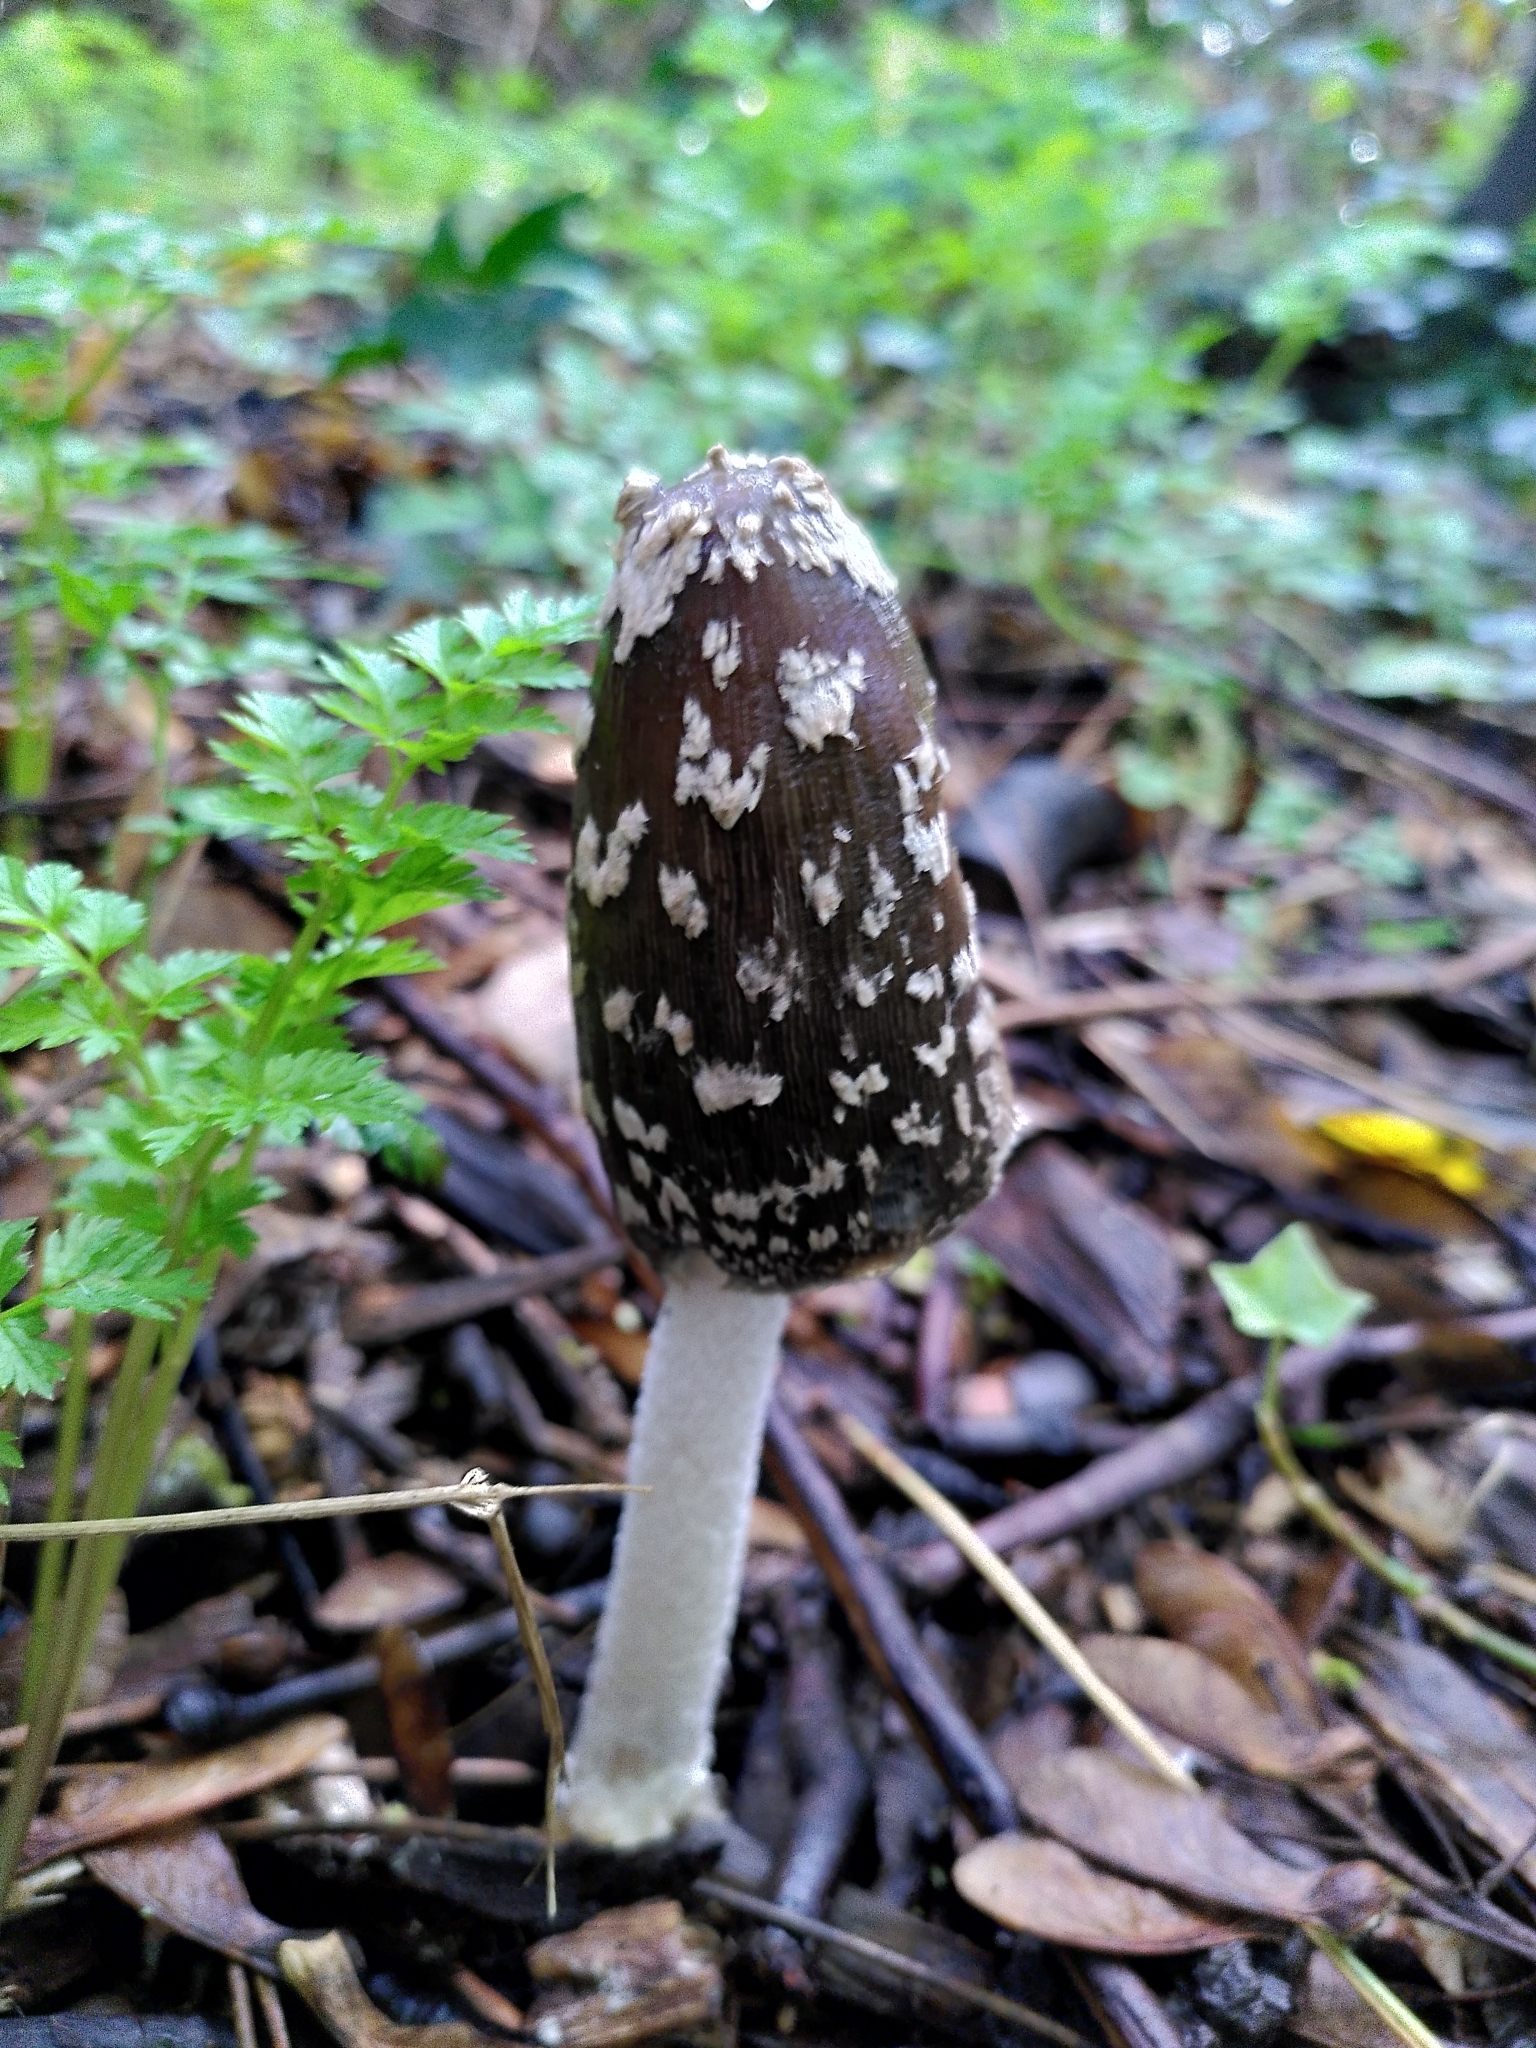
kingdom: Fungi
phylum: Basidiomycota
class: Agaricomycetes
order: Agaricales
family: Psathyrellaceae
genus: Coprinopsis
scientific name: Coprinopsis picacea
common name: Magpie inkcap
